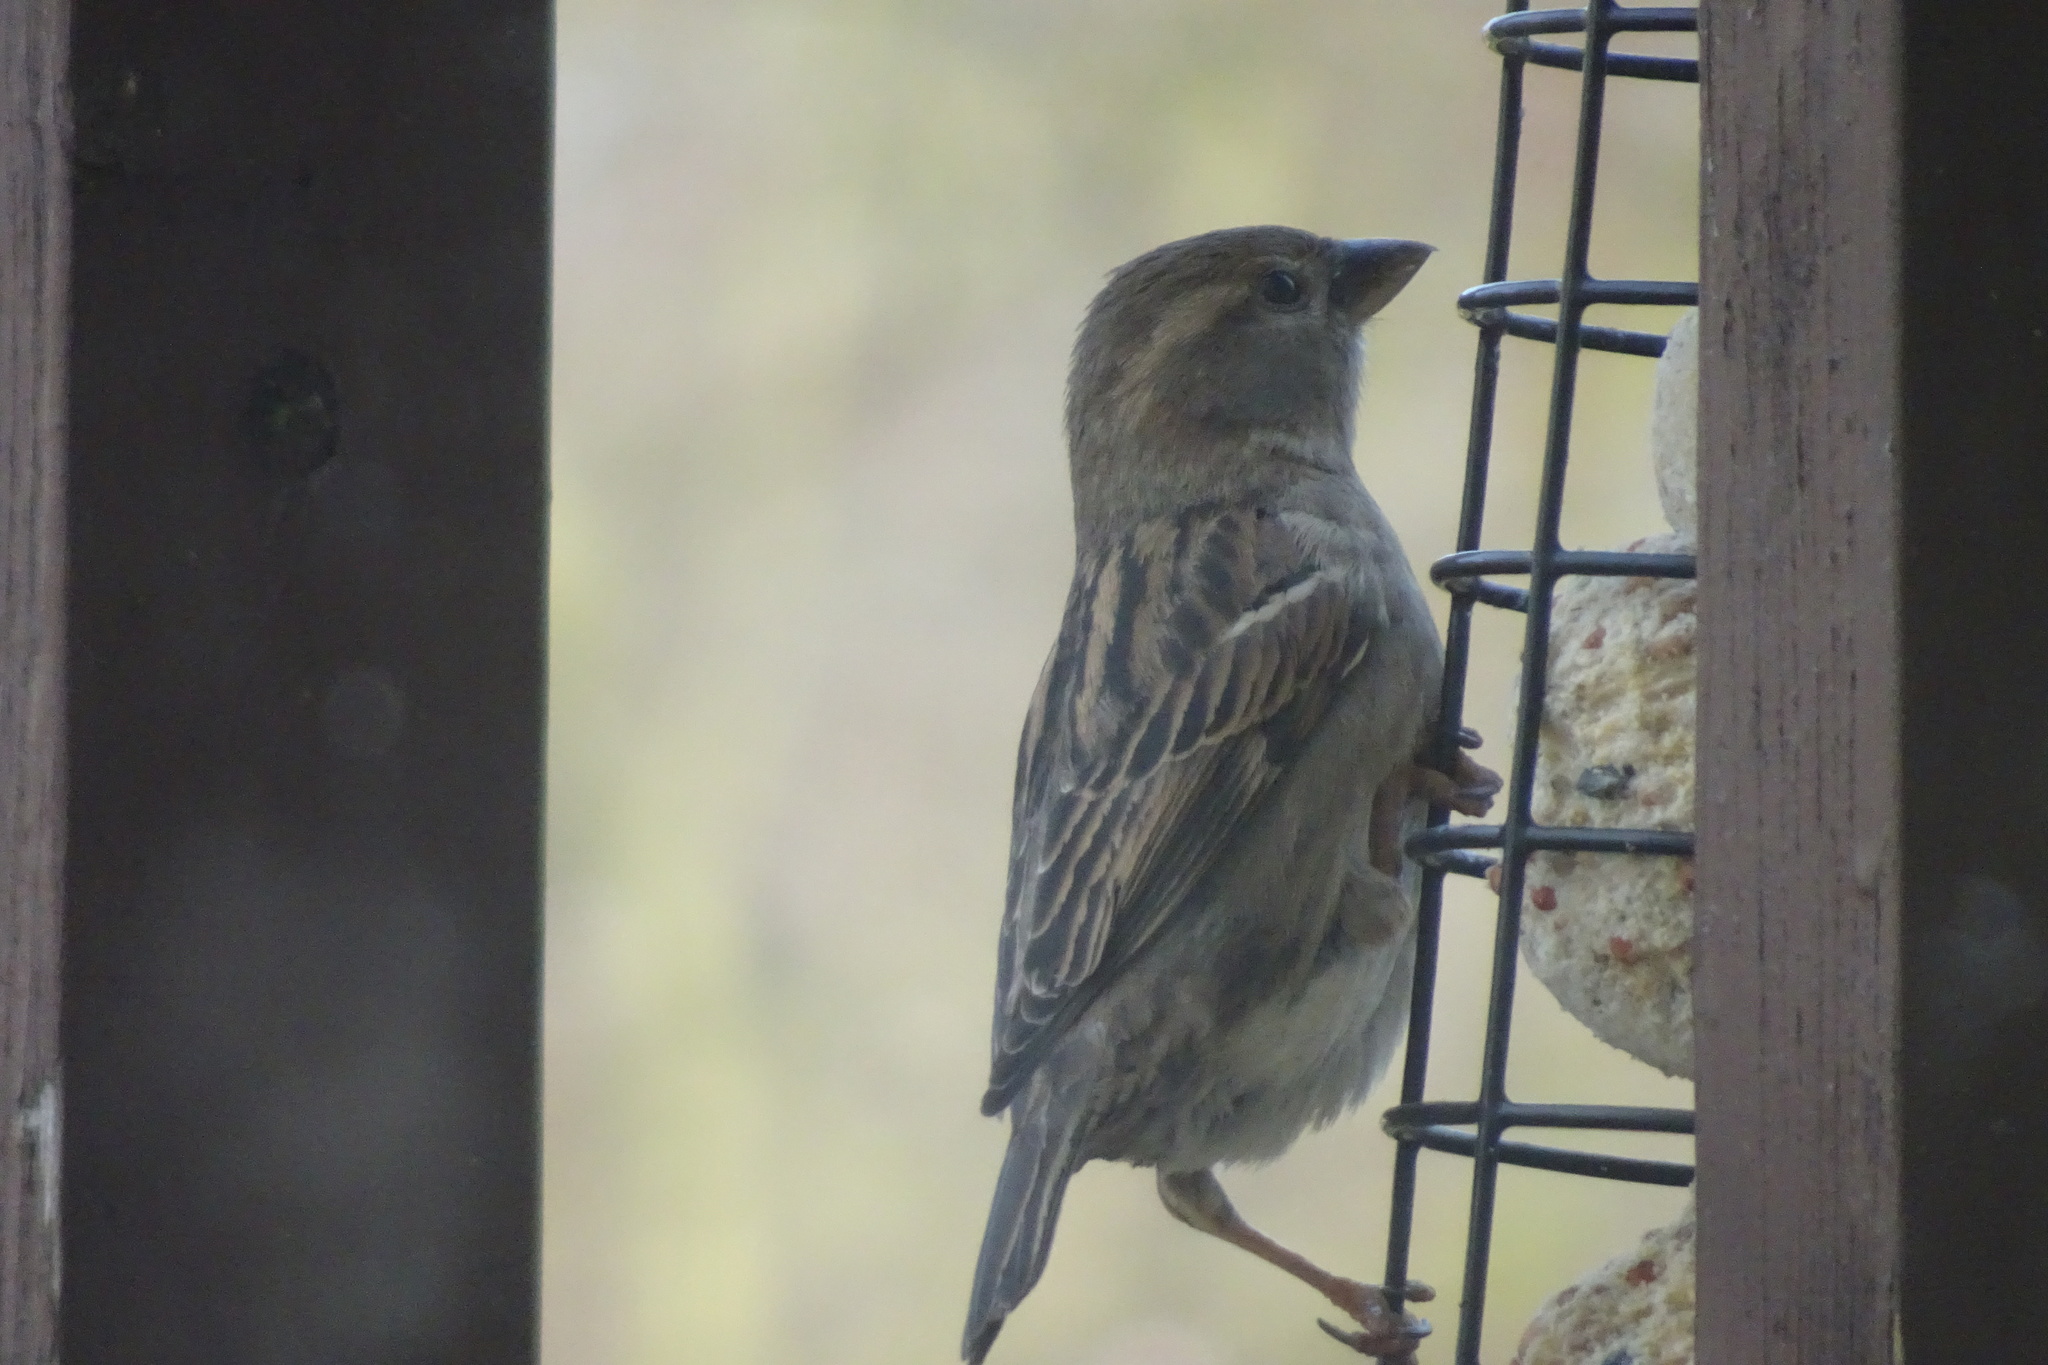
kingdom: Animalia
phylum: Chordata
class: Aves
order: Passeriformes
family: Passeridae
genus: Passer
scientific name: Passer domesticus
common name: House sparrow
